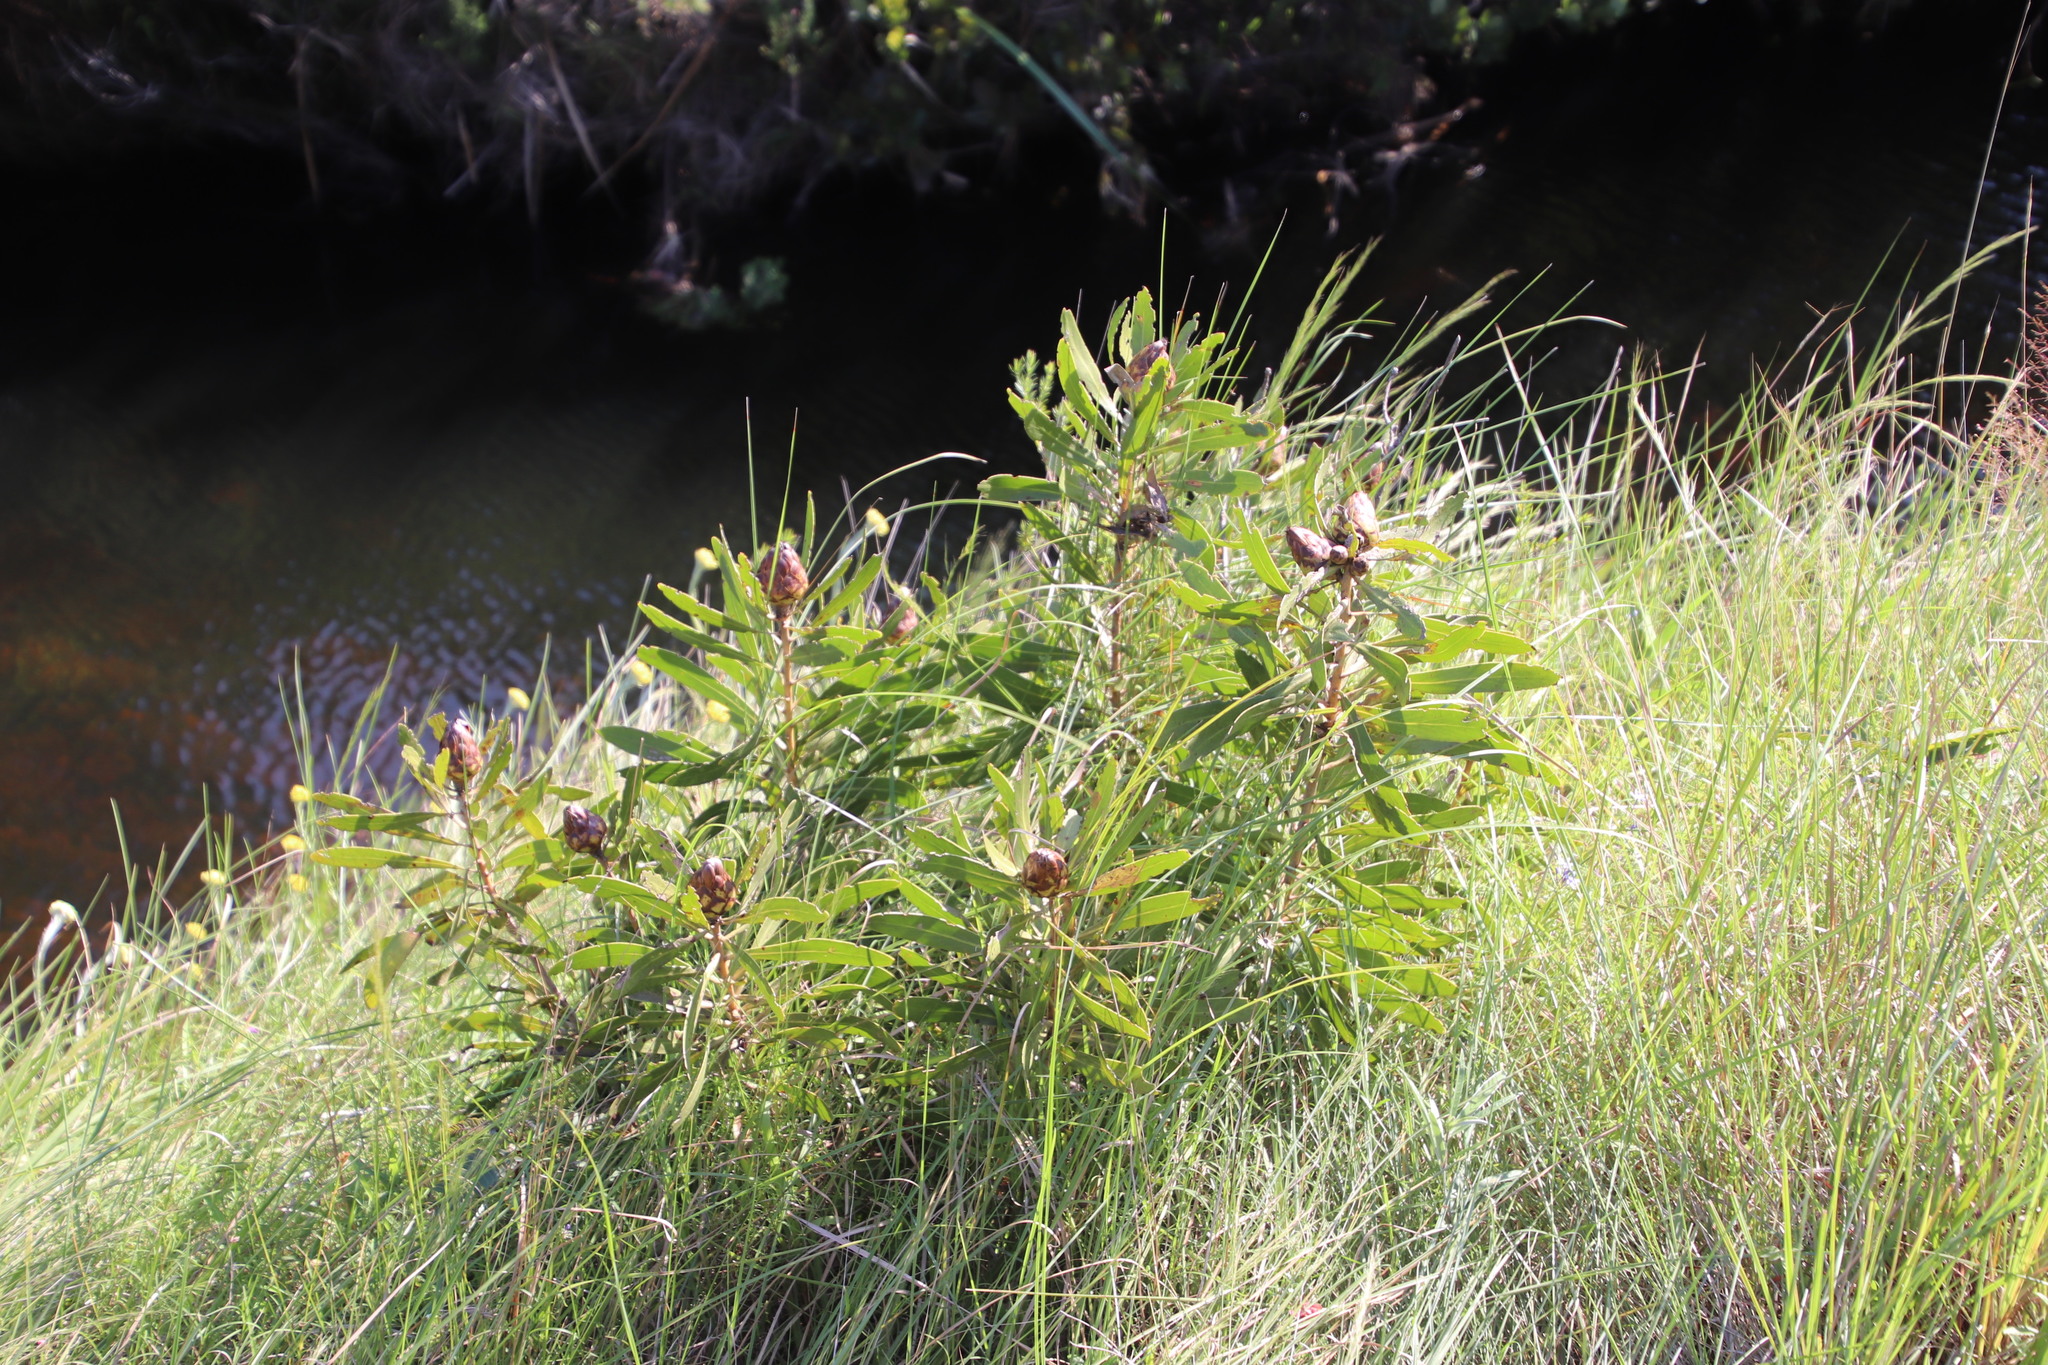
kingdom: Plantae
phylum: Tracheophyta
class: Magnoliopsida
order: Proteales
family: Proteaceae
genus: Protea
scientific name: Protea
